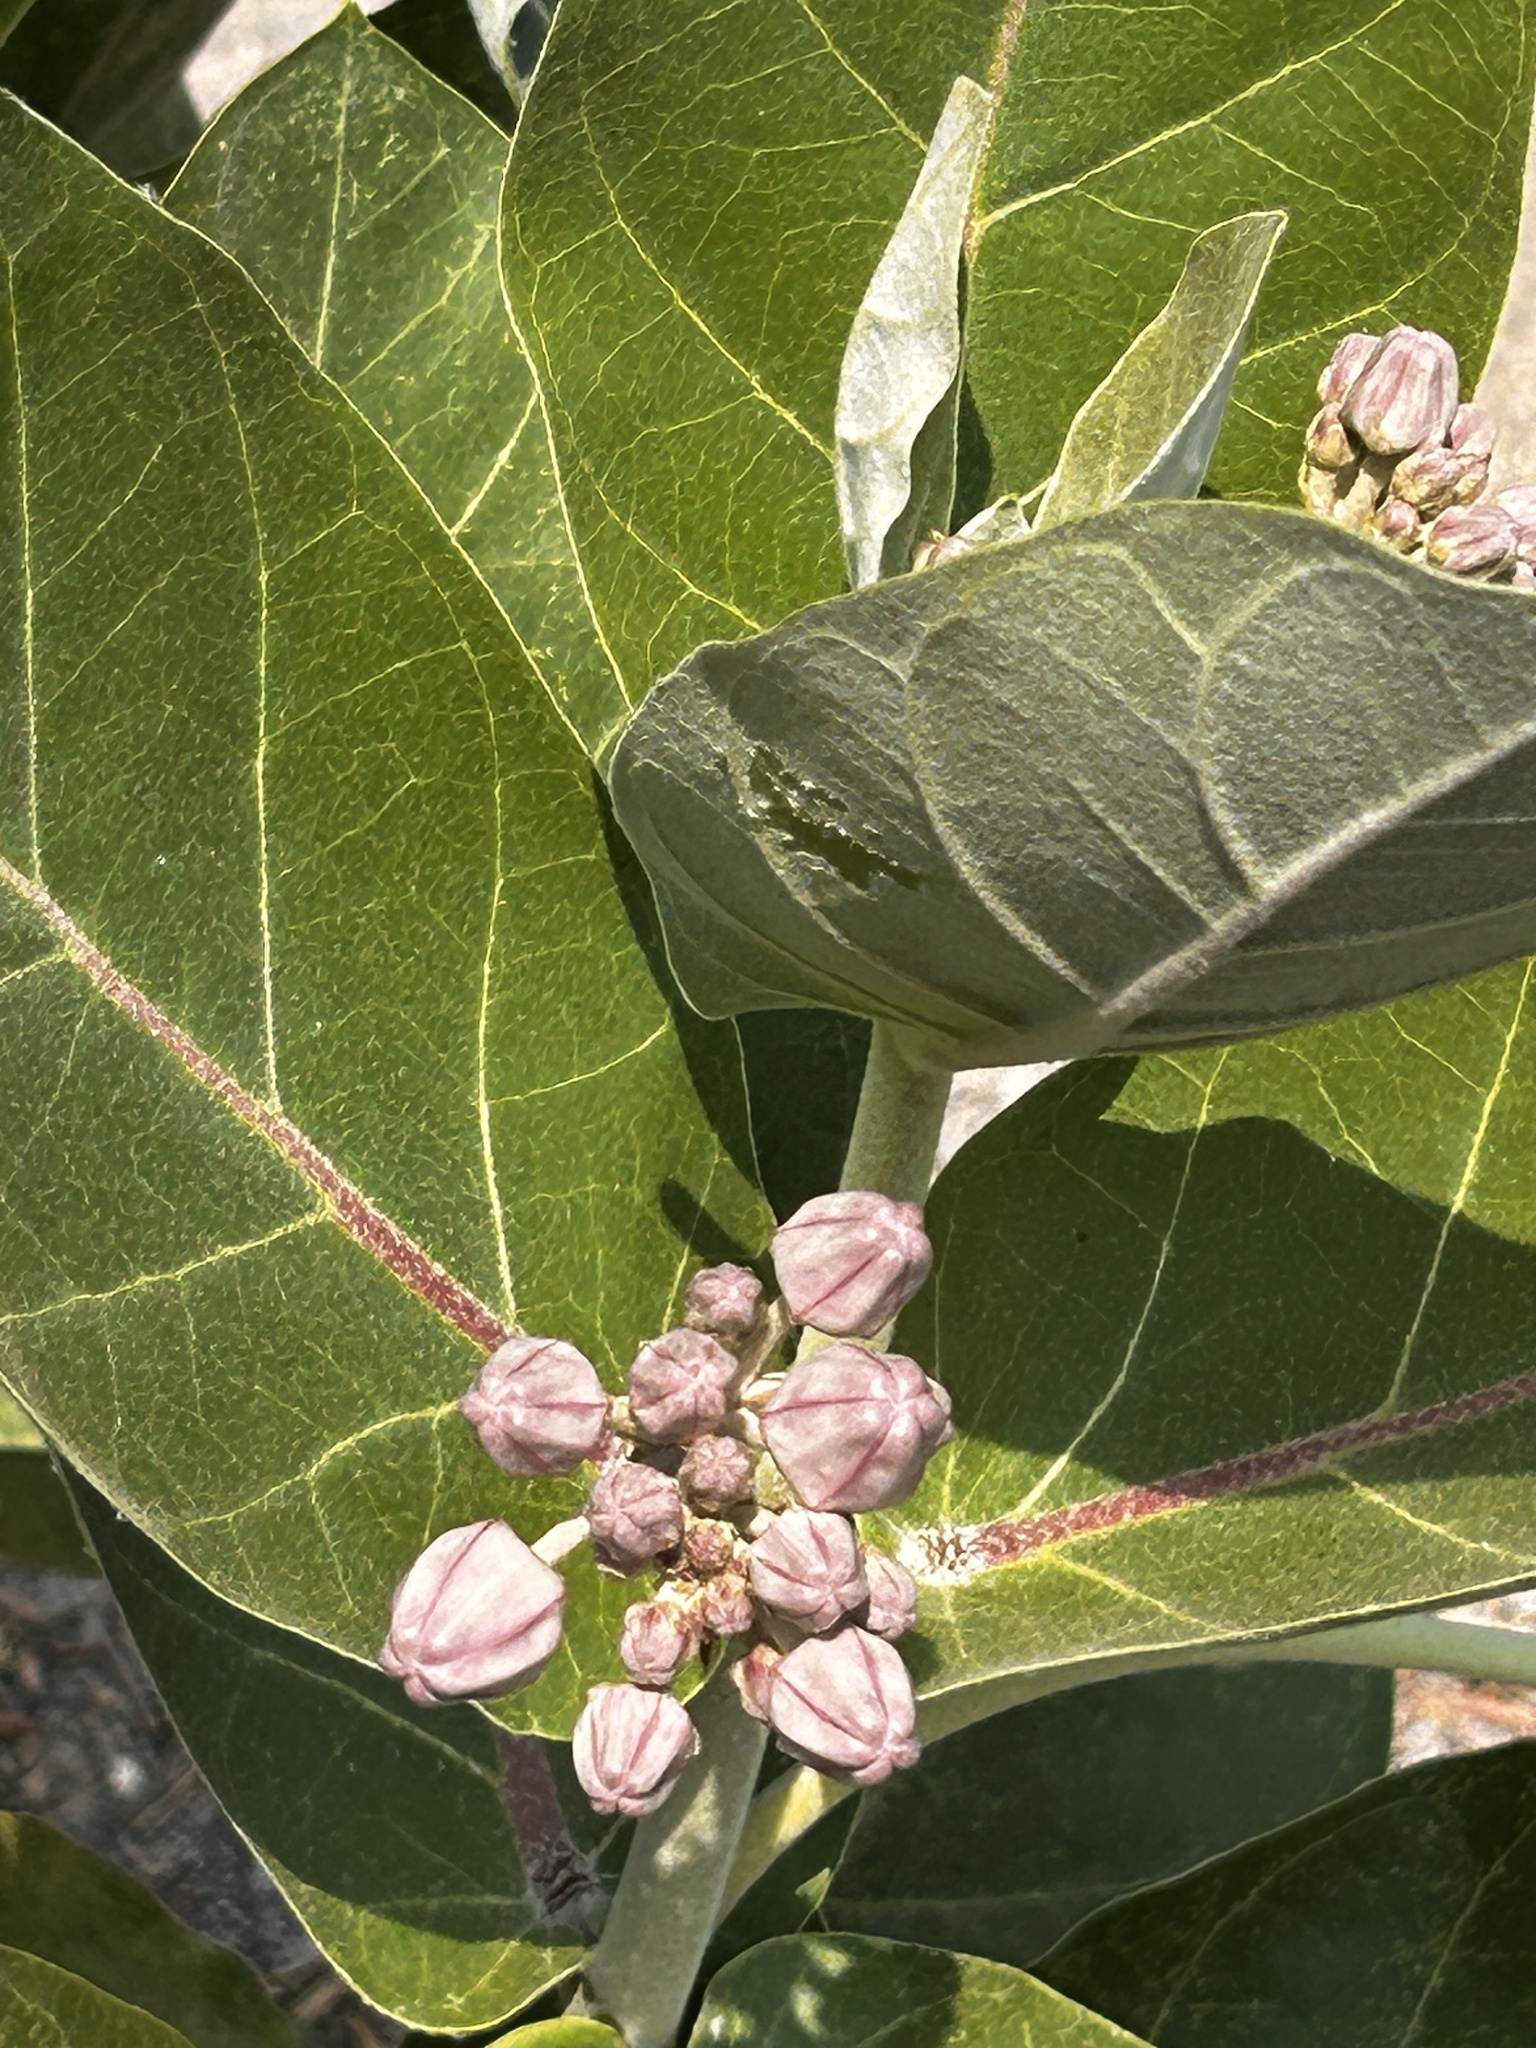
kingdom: Plantae
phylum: Tracheophyta
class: Magnoliopsida
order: Gentianales
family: Apocynaceae
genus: Calotropis
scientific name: Calotropis gigantea
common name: Crown flower
